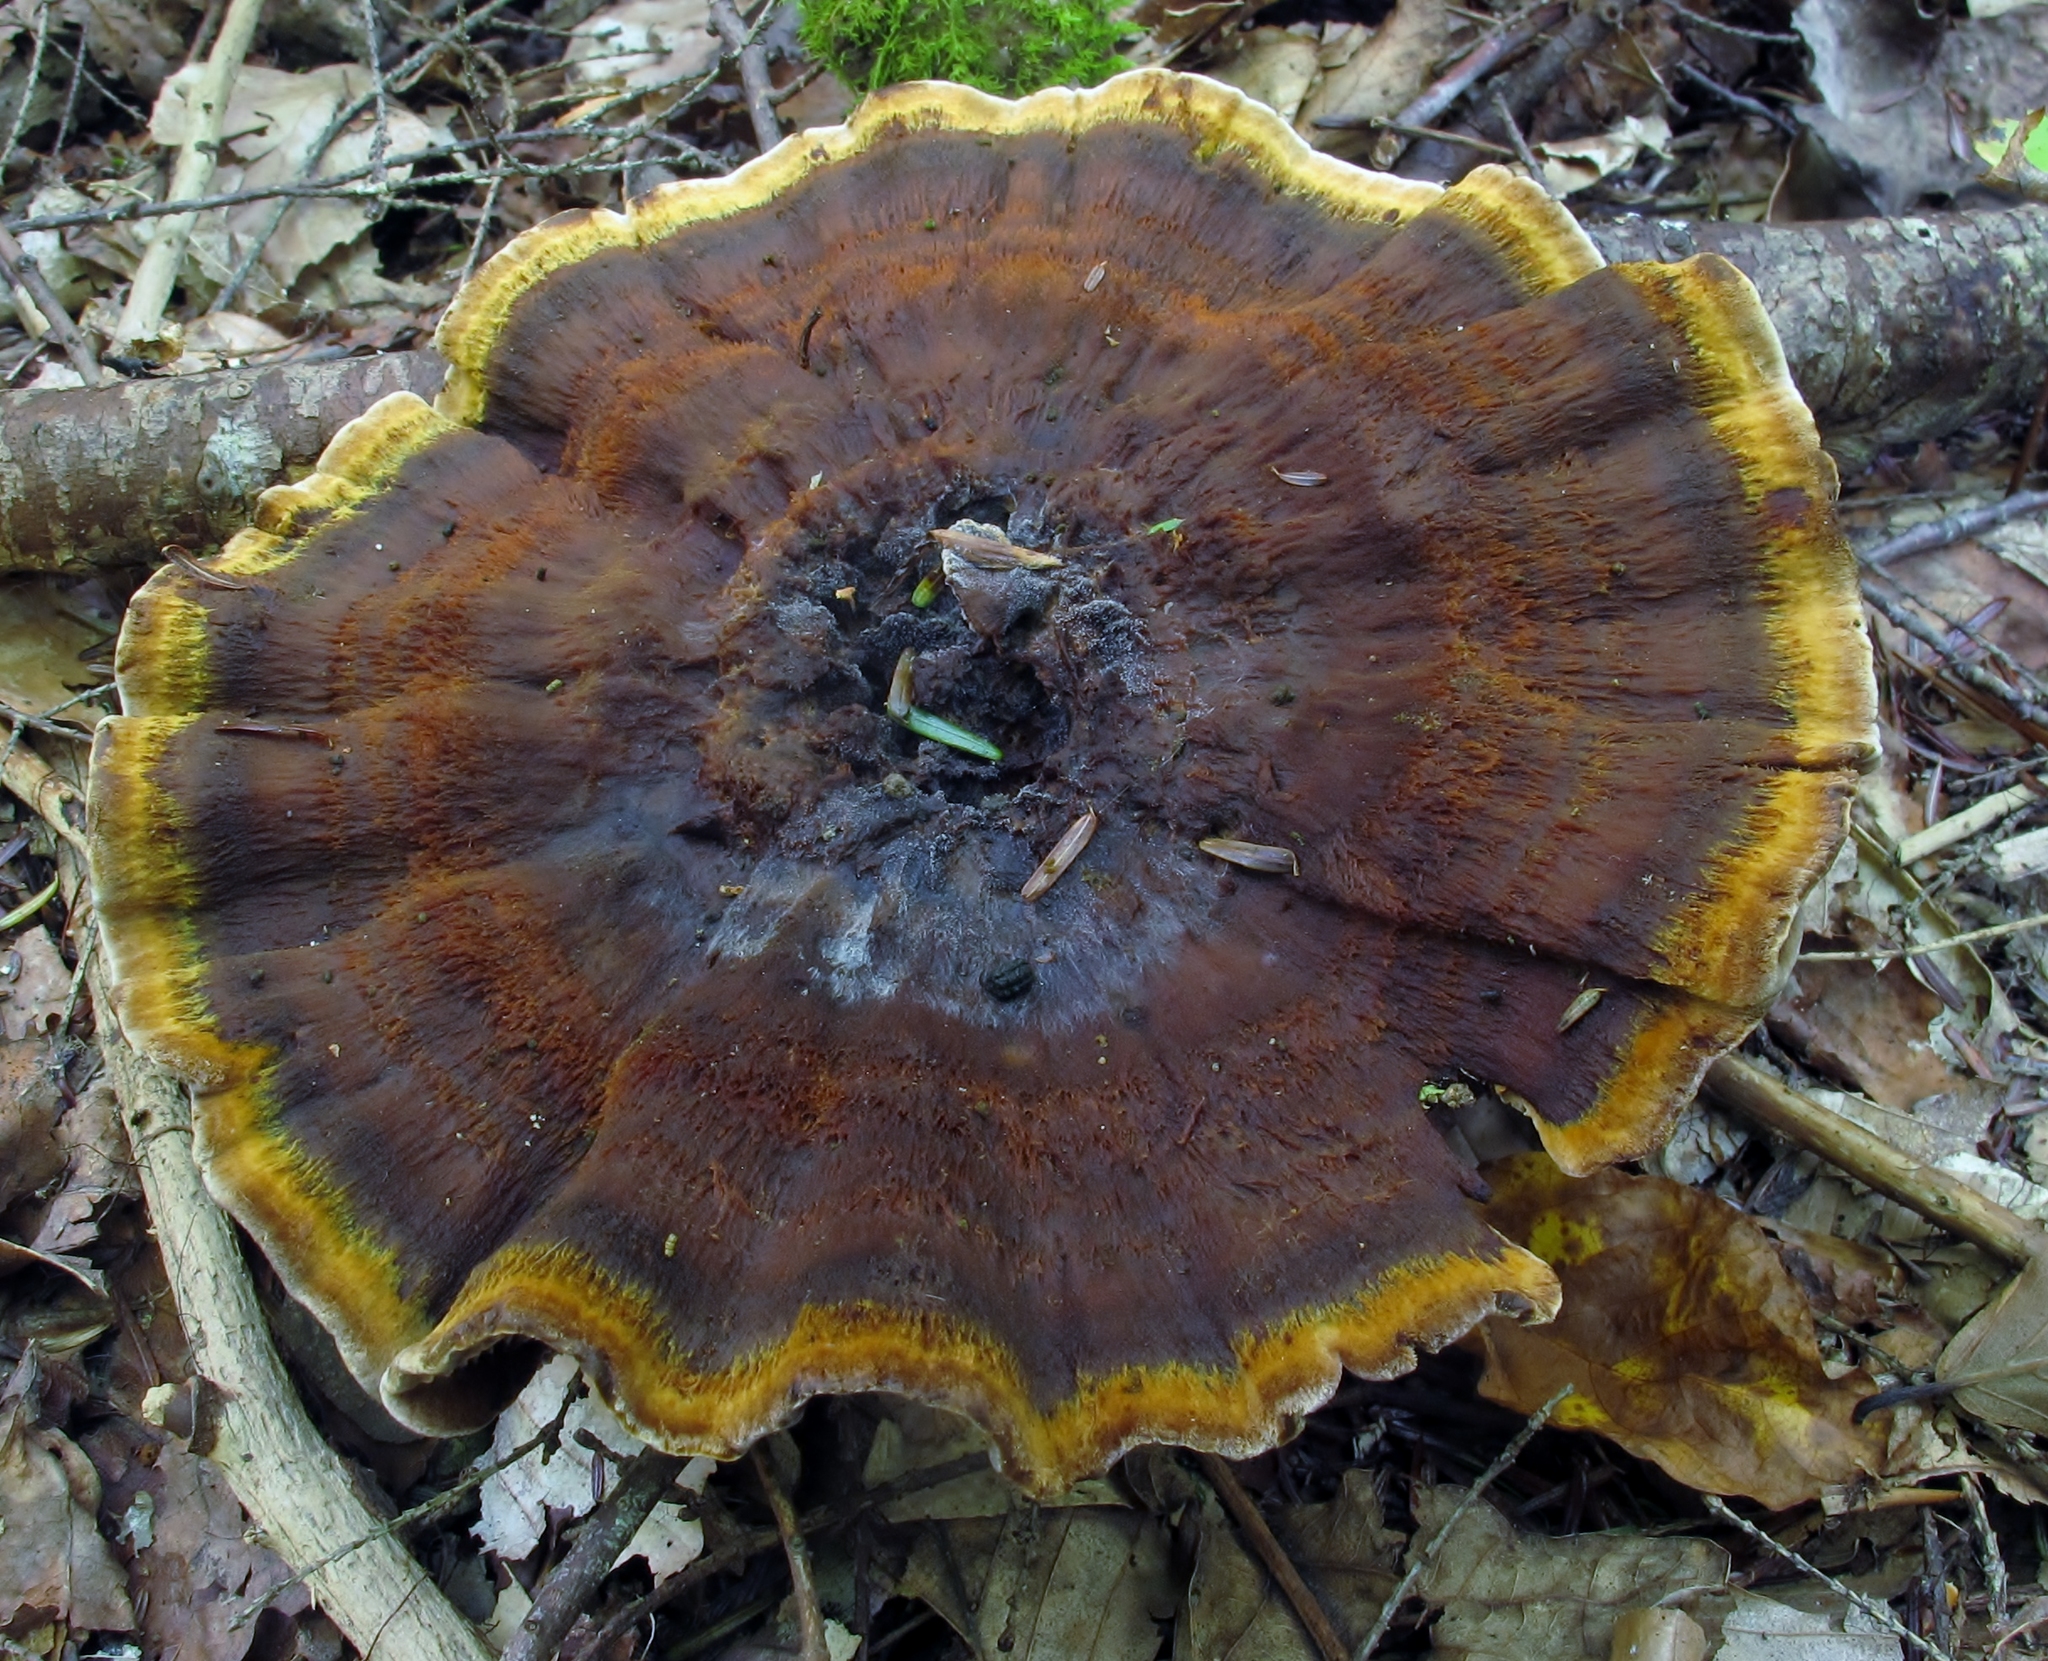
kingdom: Fungi
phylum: Basidiomycota
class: Agaricomycetes
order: Hymenochaetales
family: Hymenochaetaceae
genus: Coltricia
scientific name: Coltricia montagnei
